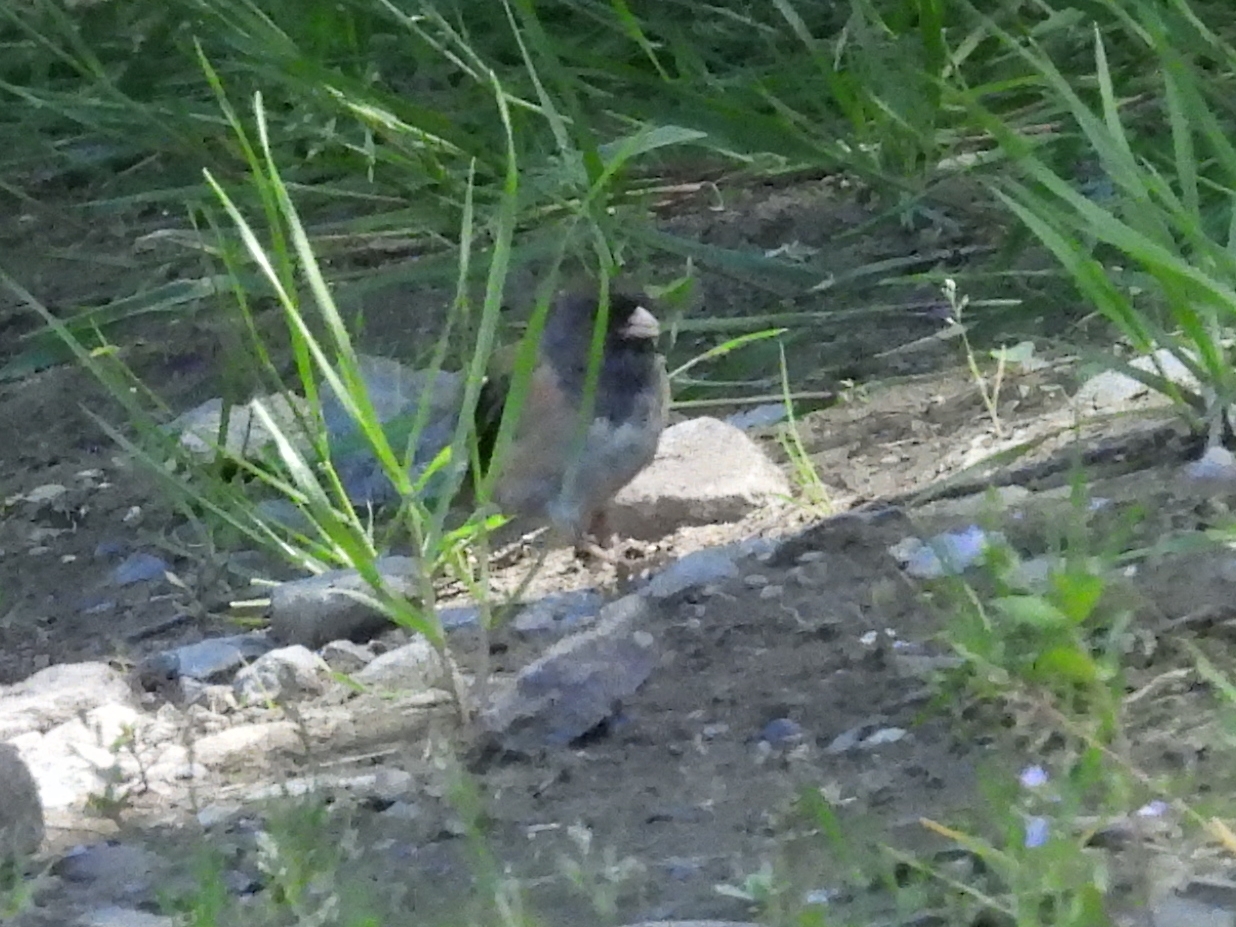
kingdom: Animalia
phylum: Chordata
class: Aves
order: Passeriformes
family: Passerellidae
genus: Junco
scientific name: Junco hyemalis
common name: Dark-eyed junco
